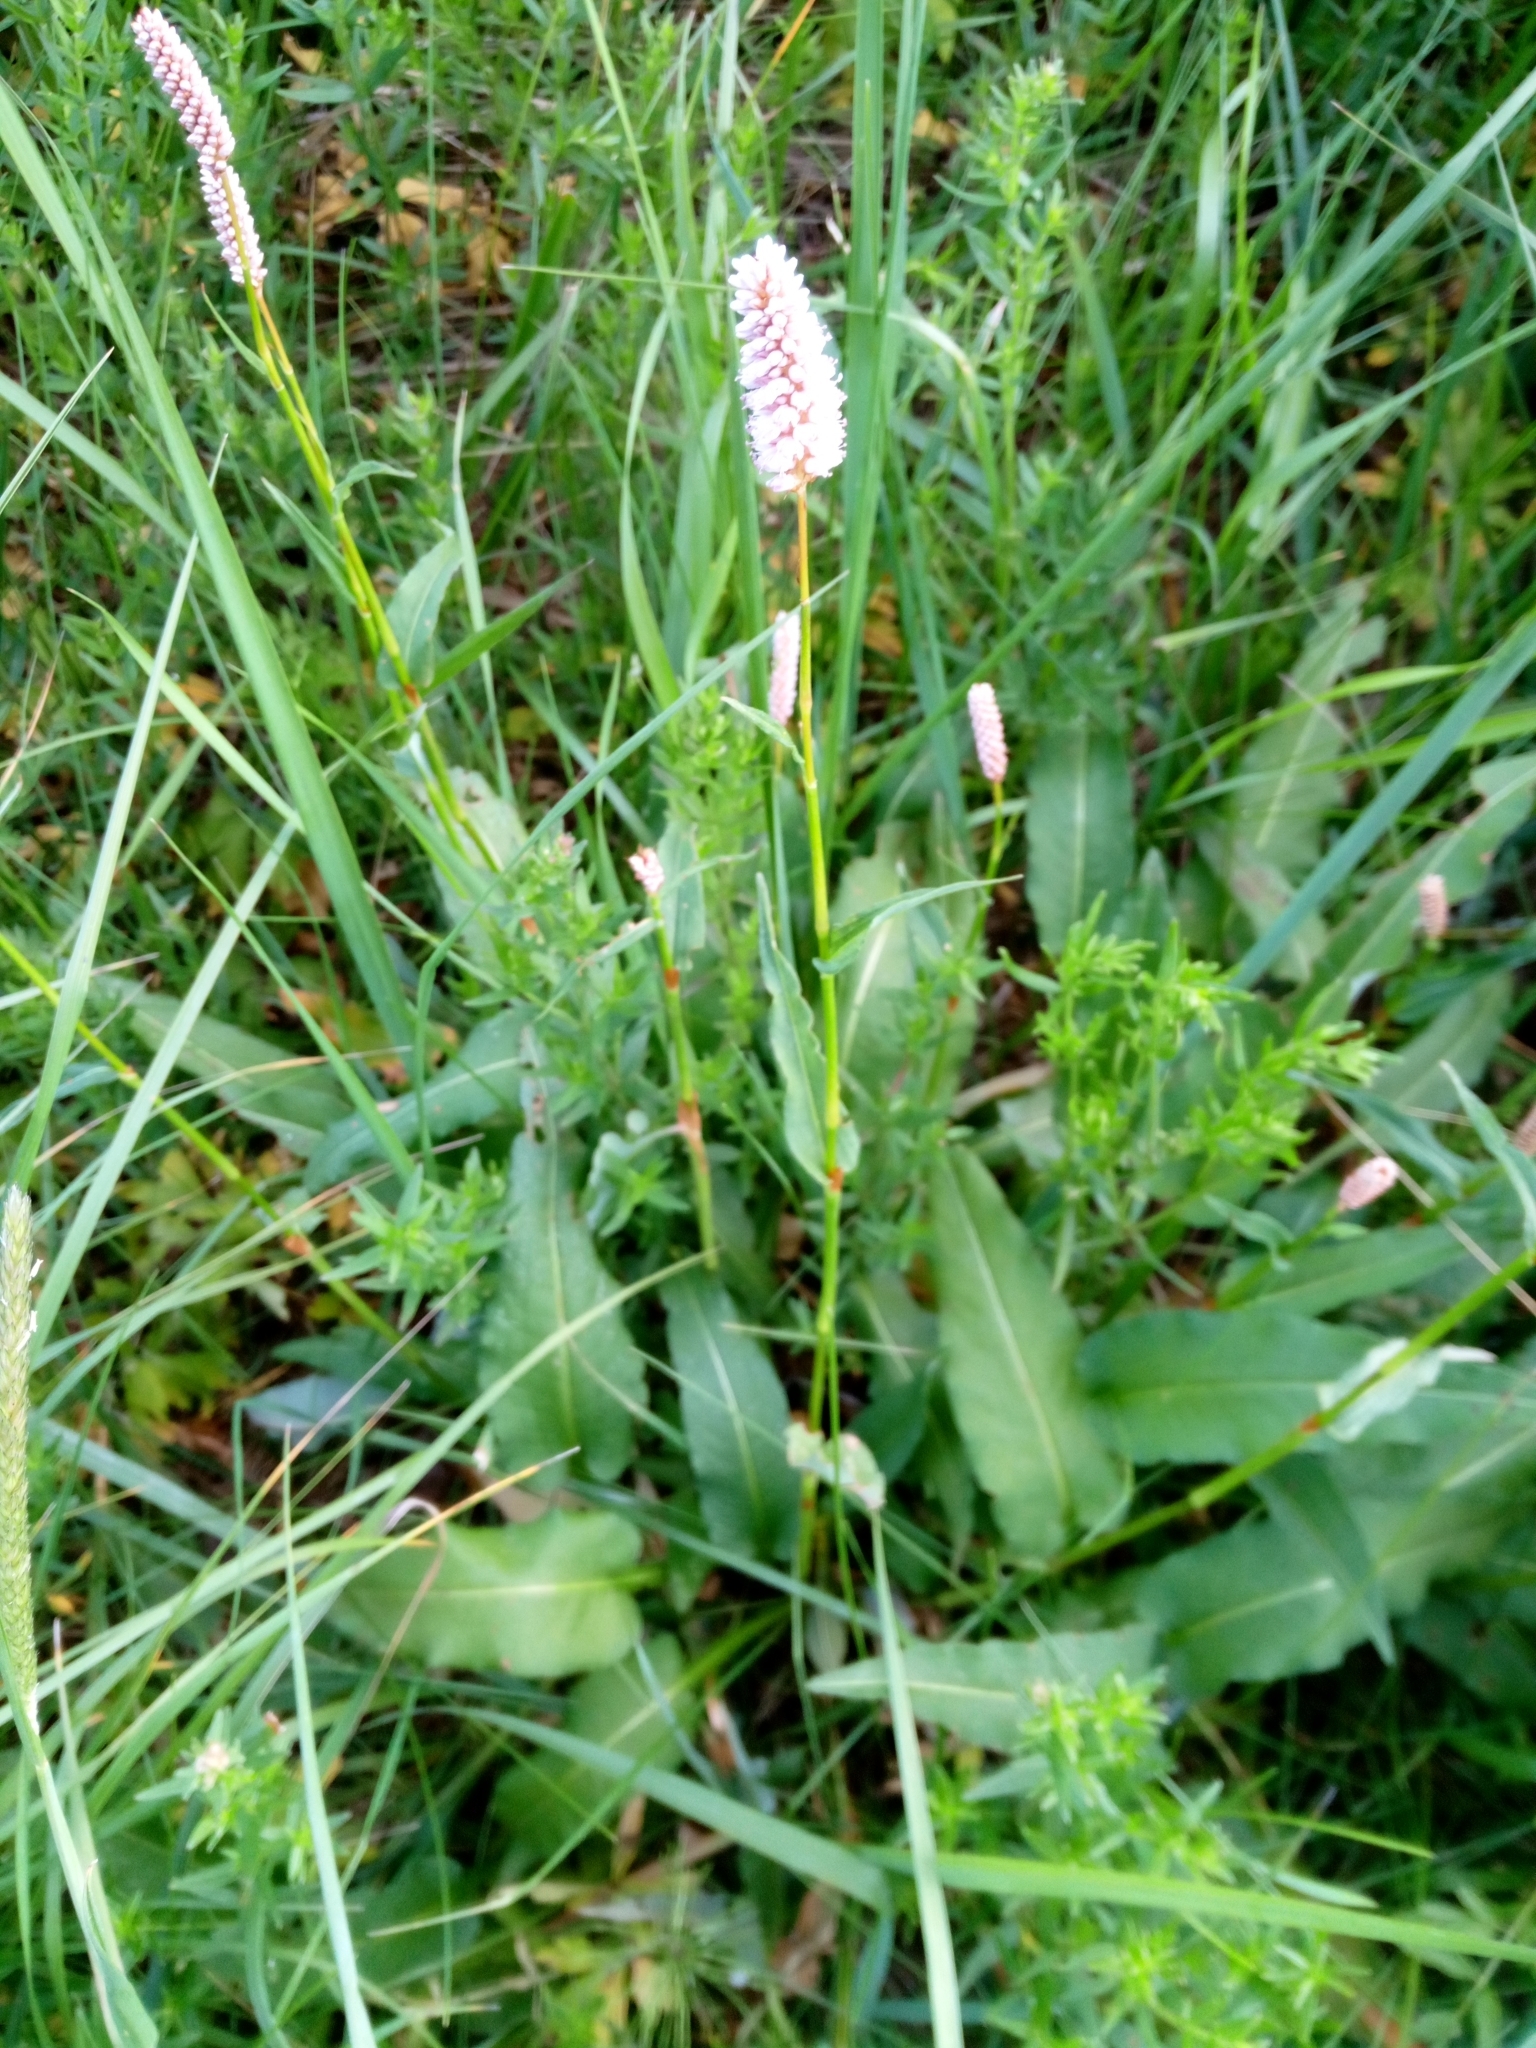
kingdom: Plantae
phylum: Tracheophyta
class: Magnoliopsida
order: Caryophyllales
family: Polygonaceae
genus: Bistorta
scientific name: Bistorta officinalis
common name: Common bistort
